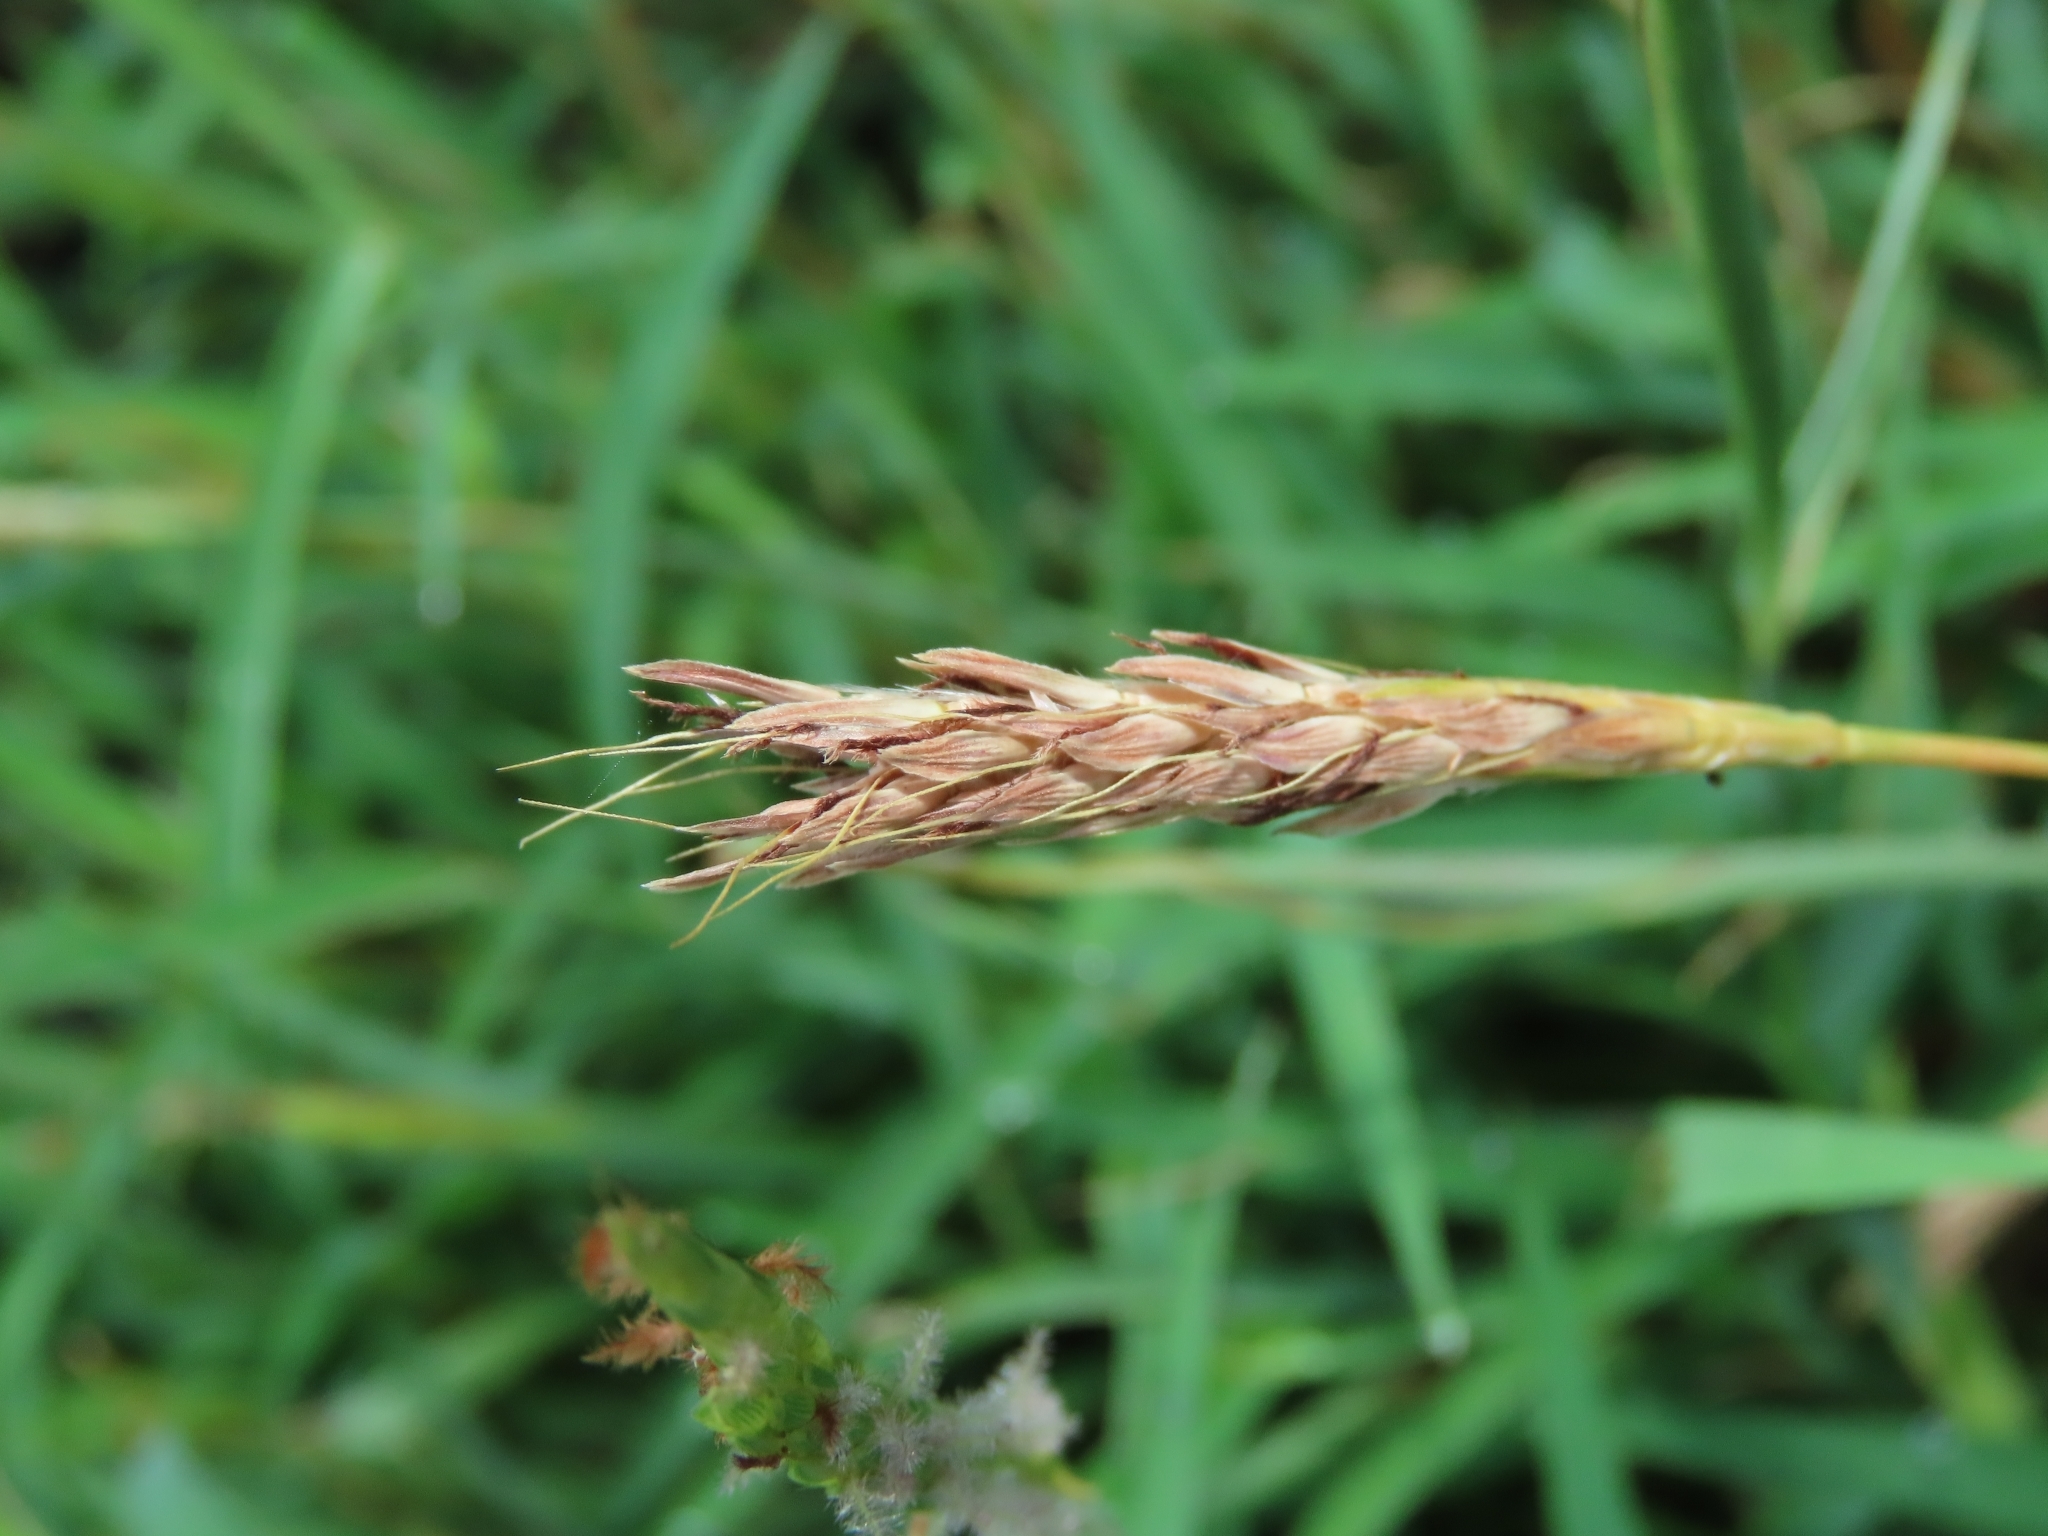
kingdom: Plantae
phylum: Tracheophyta
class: Liliopsida
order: Poales
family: Poaceae
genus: Ischaemum
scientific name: Ischaemum setaceum
